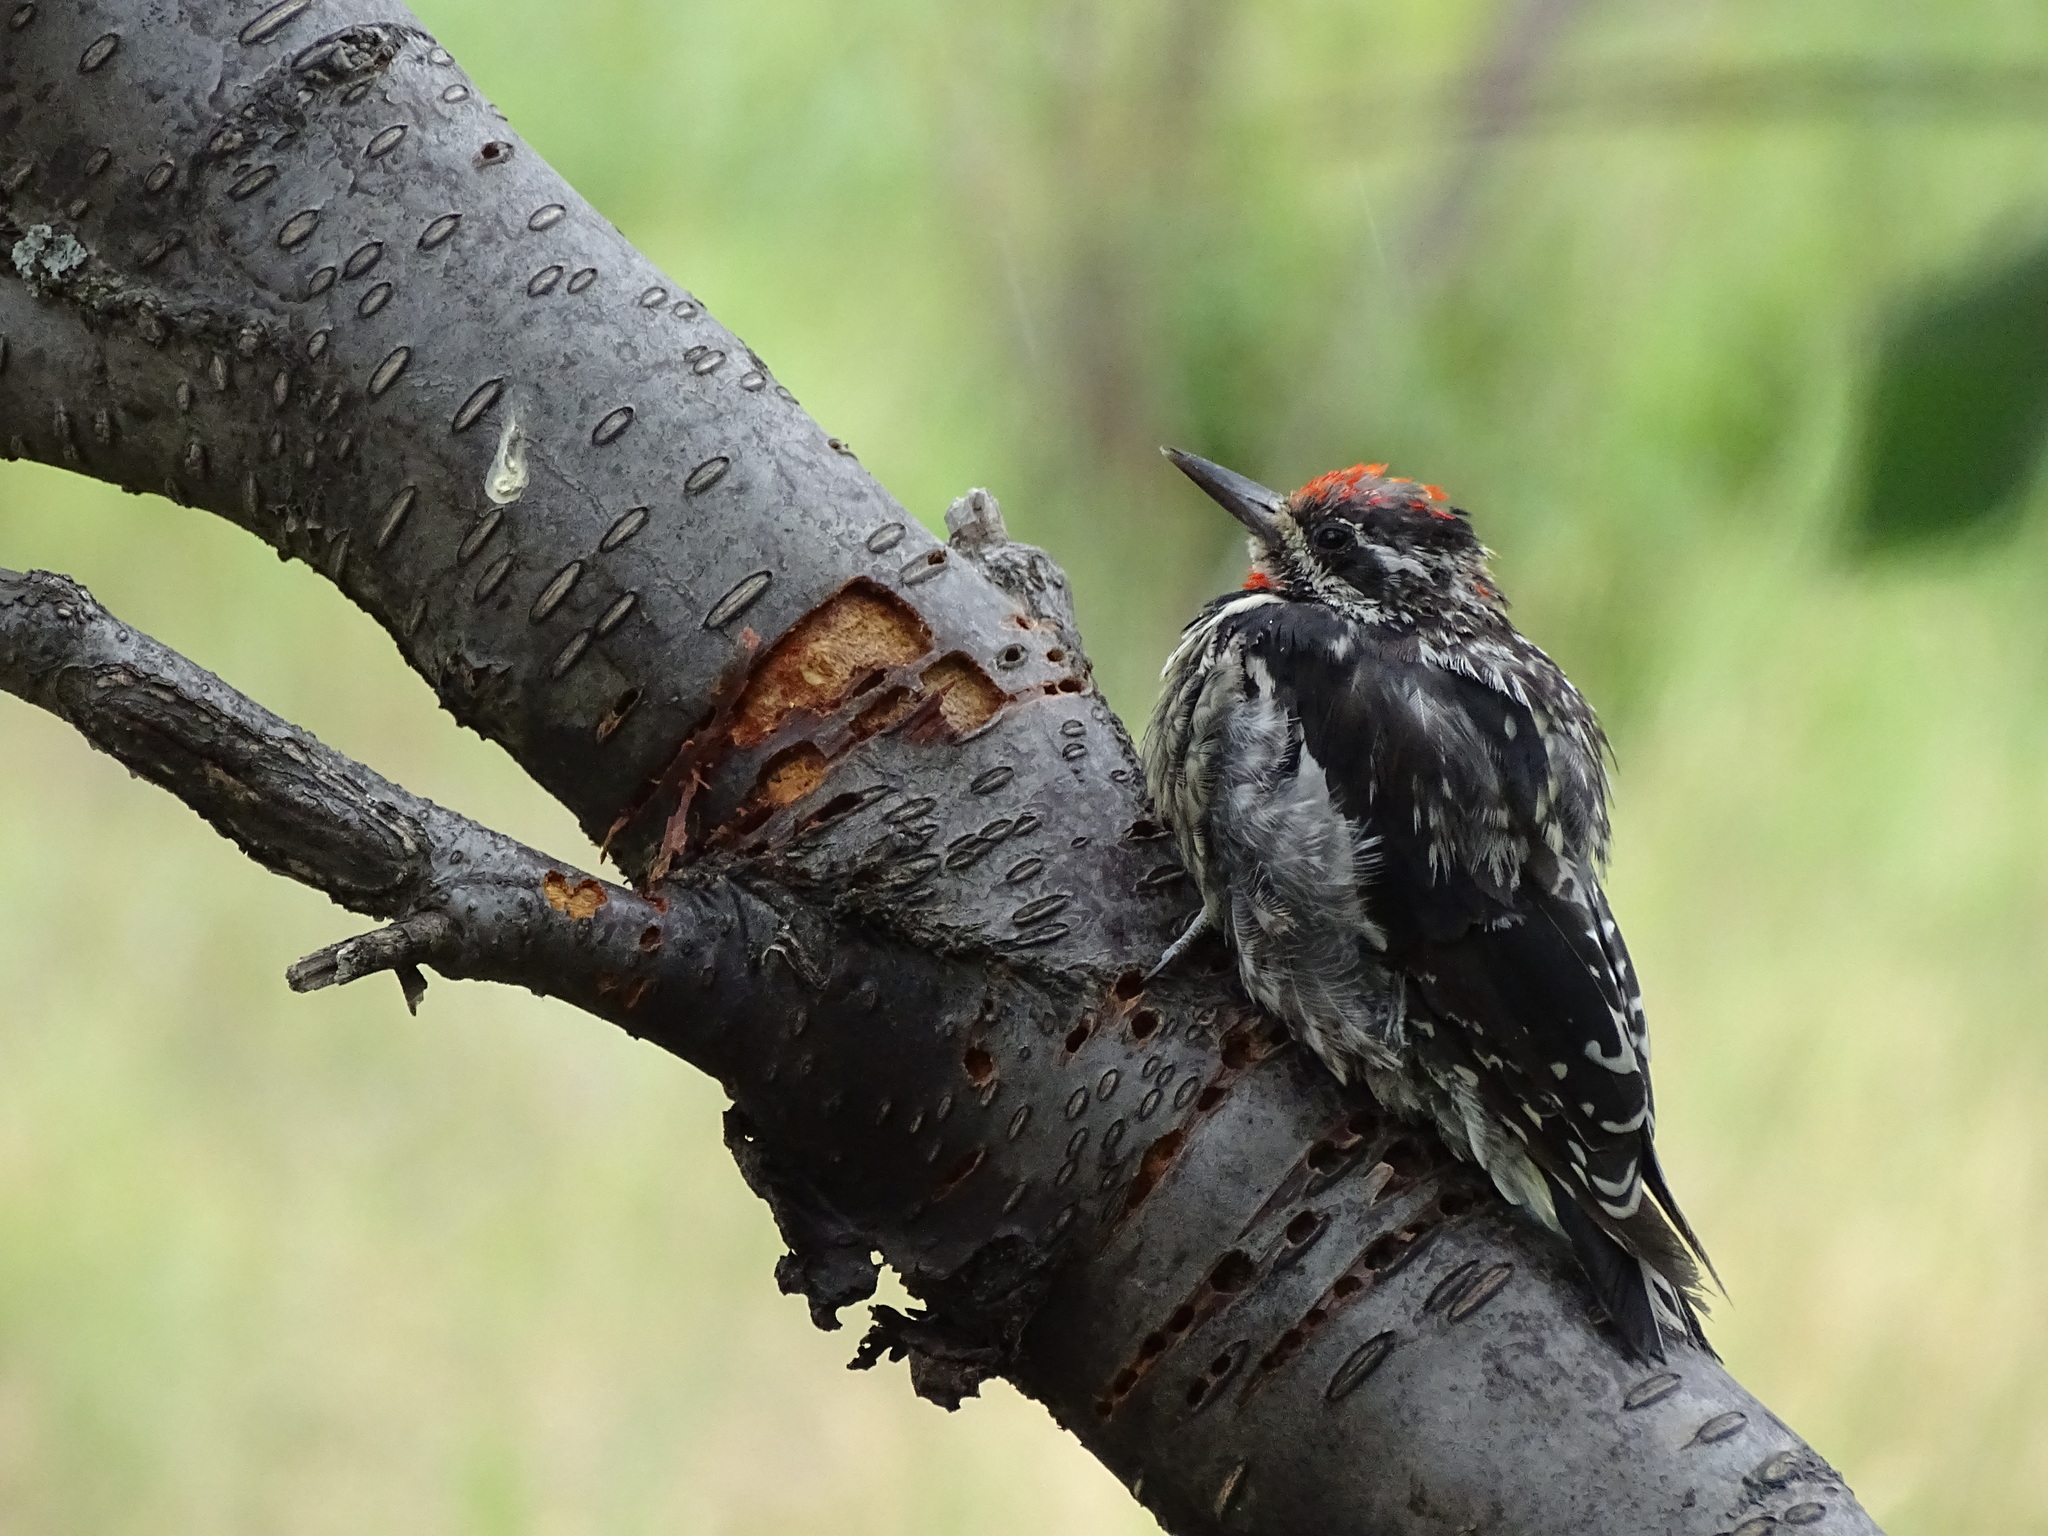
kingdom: Animalia
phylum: Chordata
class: Aves
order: Piciformes
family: Picidae
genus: Sphyrapicus
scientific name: Sphyrapicus nuchalis
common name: Red-naped sapsucker
